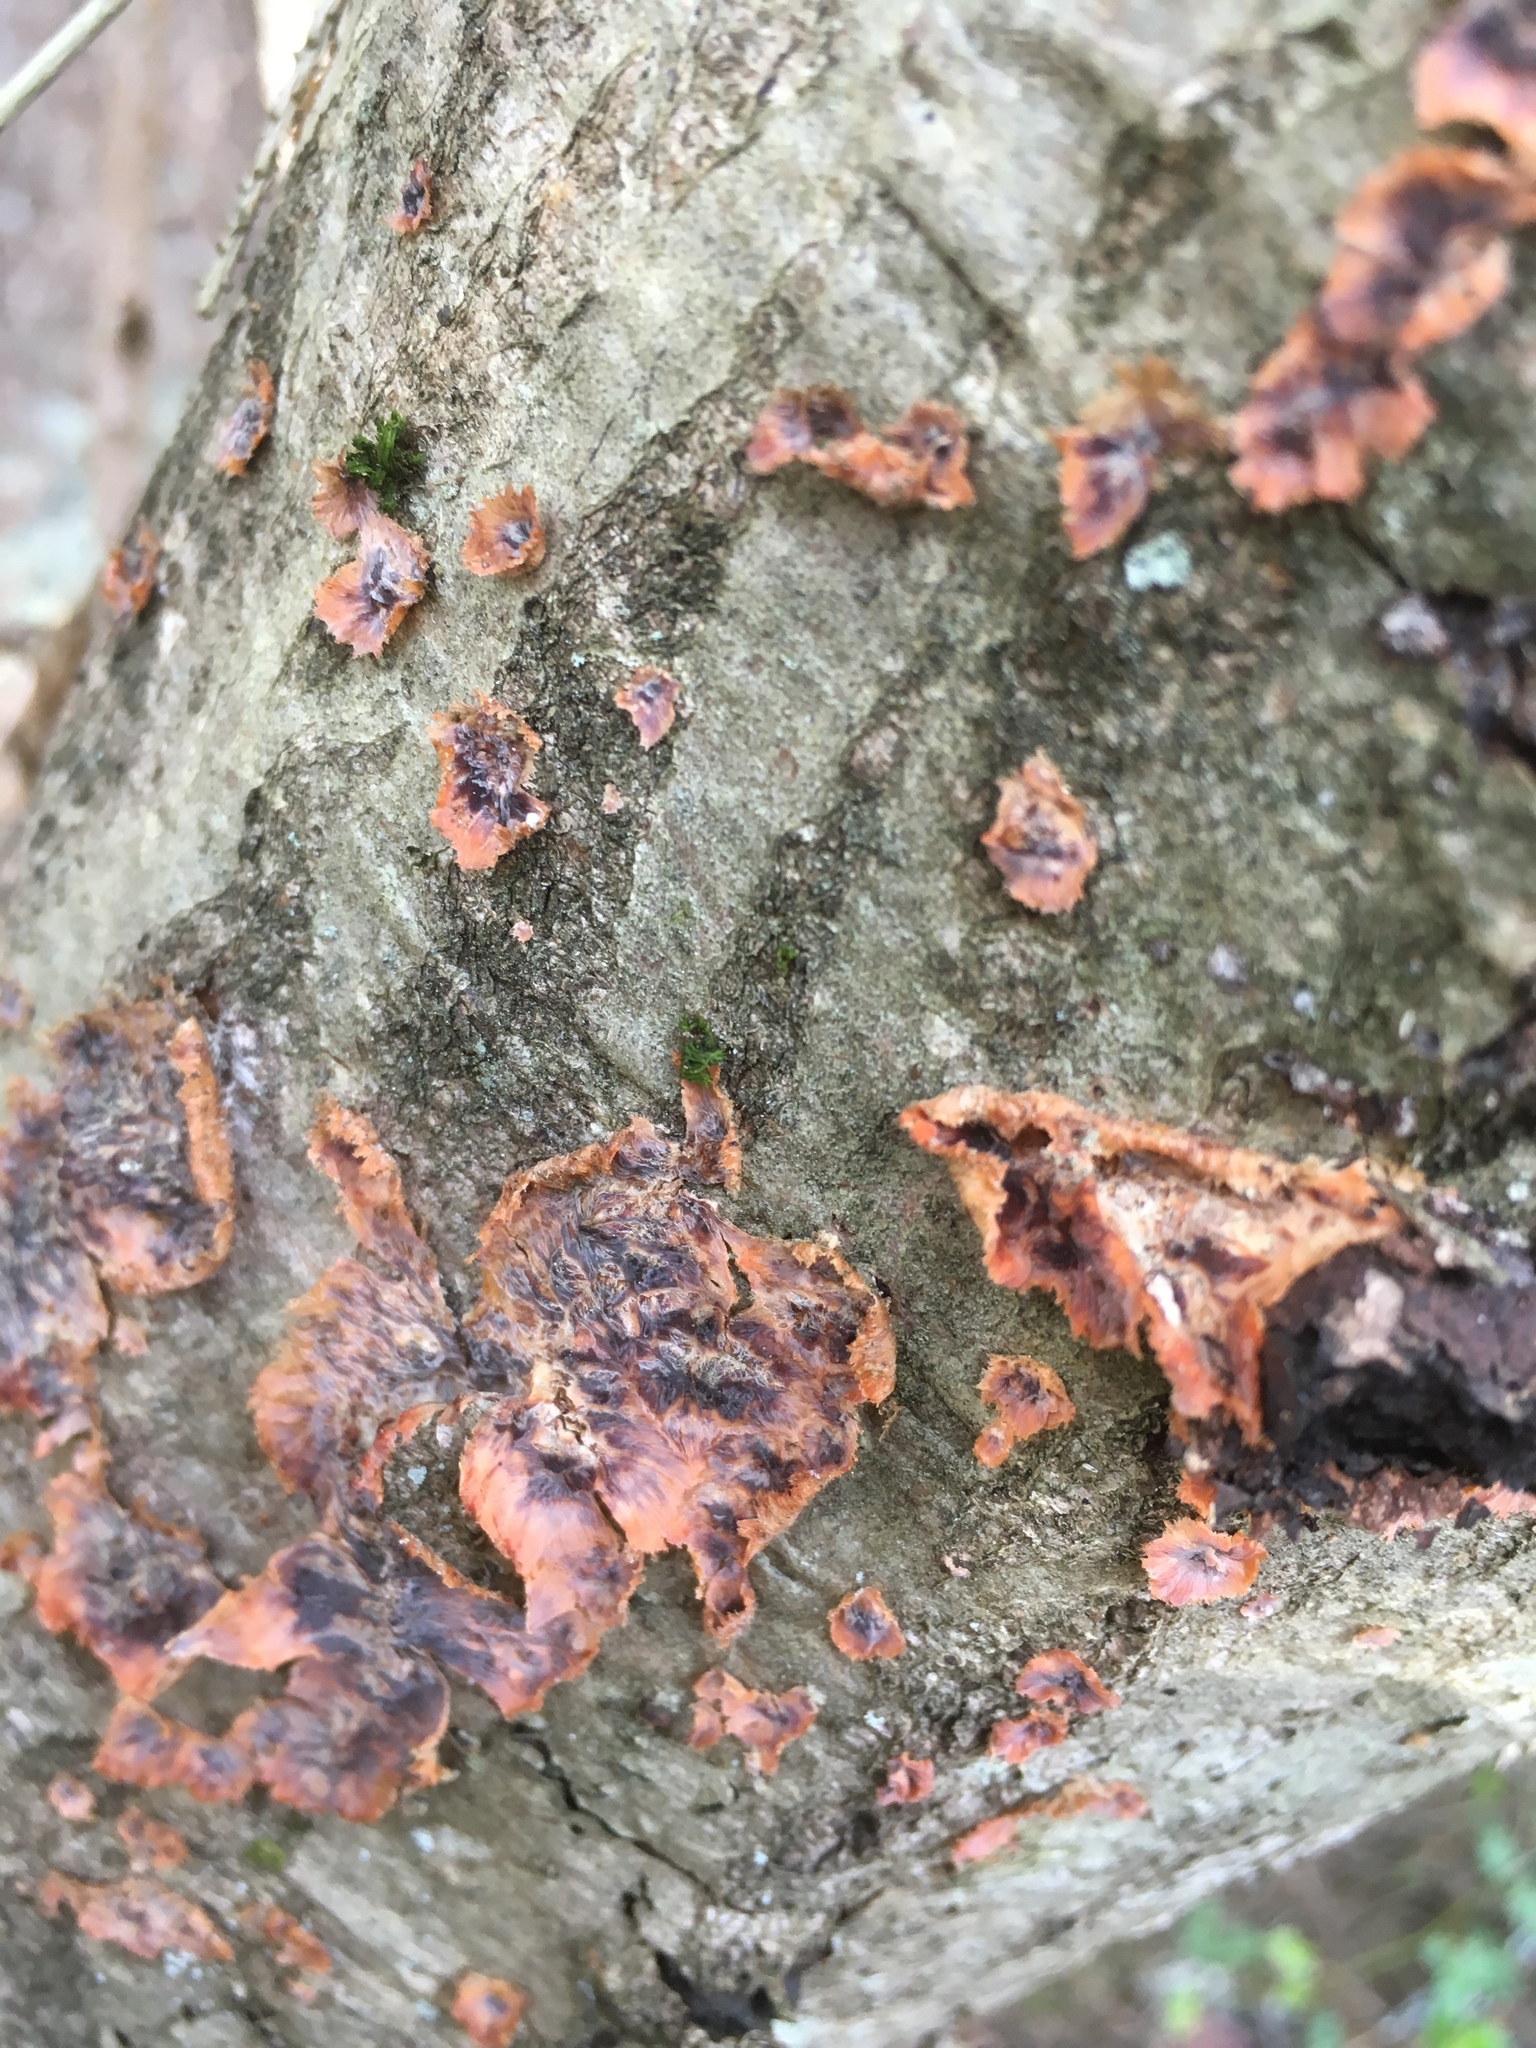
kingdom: Fungi
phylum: Basidiomycota
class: Agaricomycetes
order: Polyporales
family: Meruliaceae
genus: Phlebia
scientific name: Phlebia radiata
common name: Wrinkled crust
